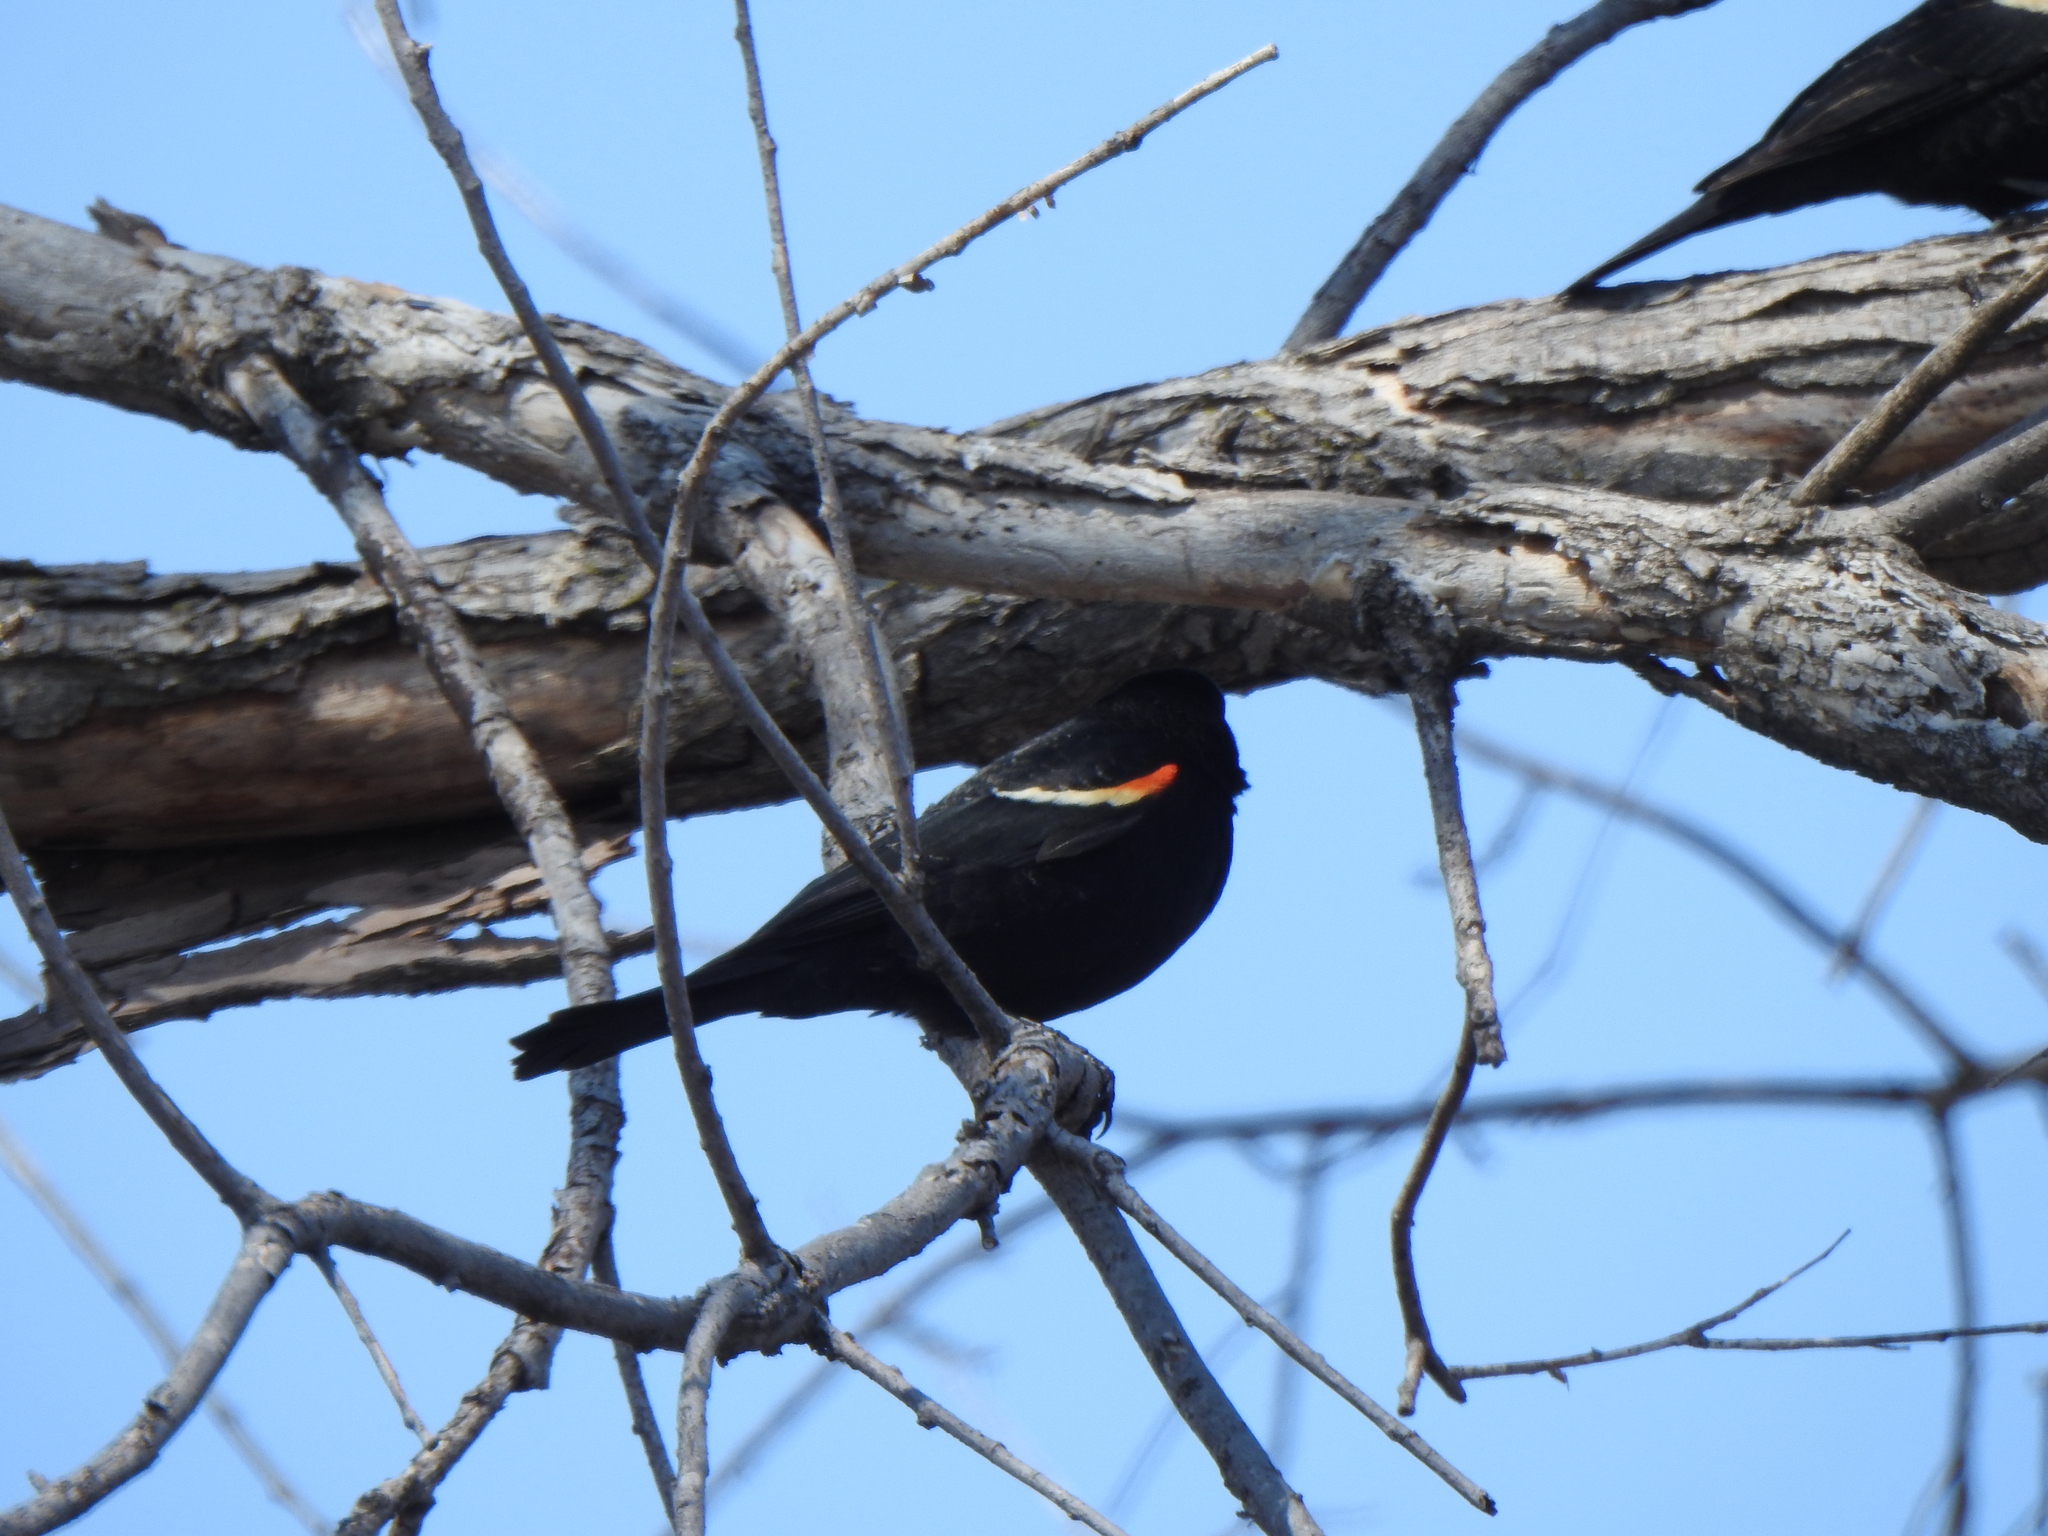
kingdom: Animalia
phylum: Chordata
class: Aves
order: Passeriformes
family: Icteridae
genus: Agelaius
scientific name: Agelaius phoeniceus
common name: Red-winged blackbird
